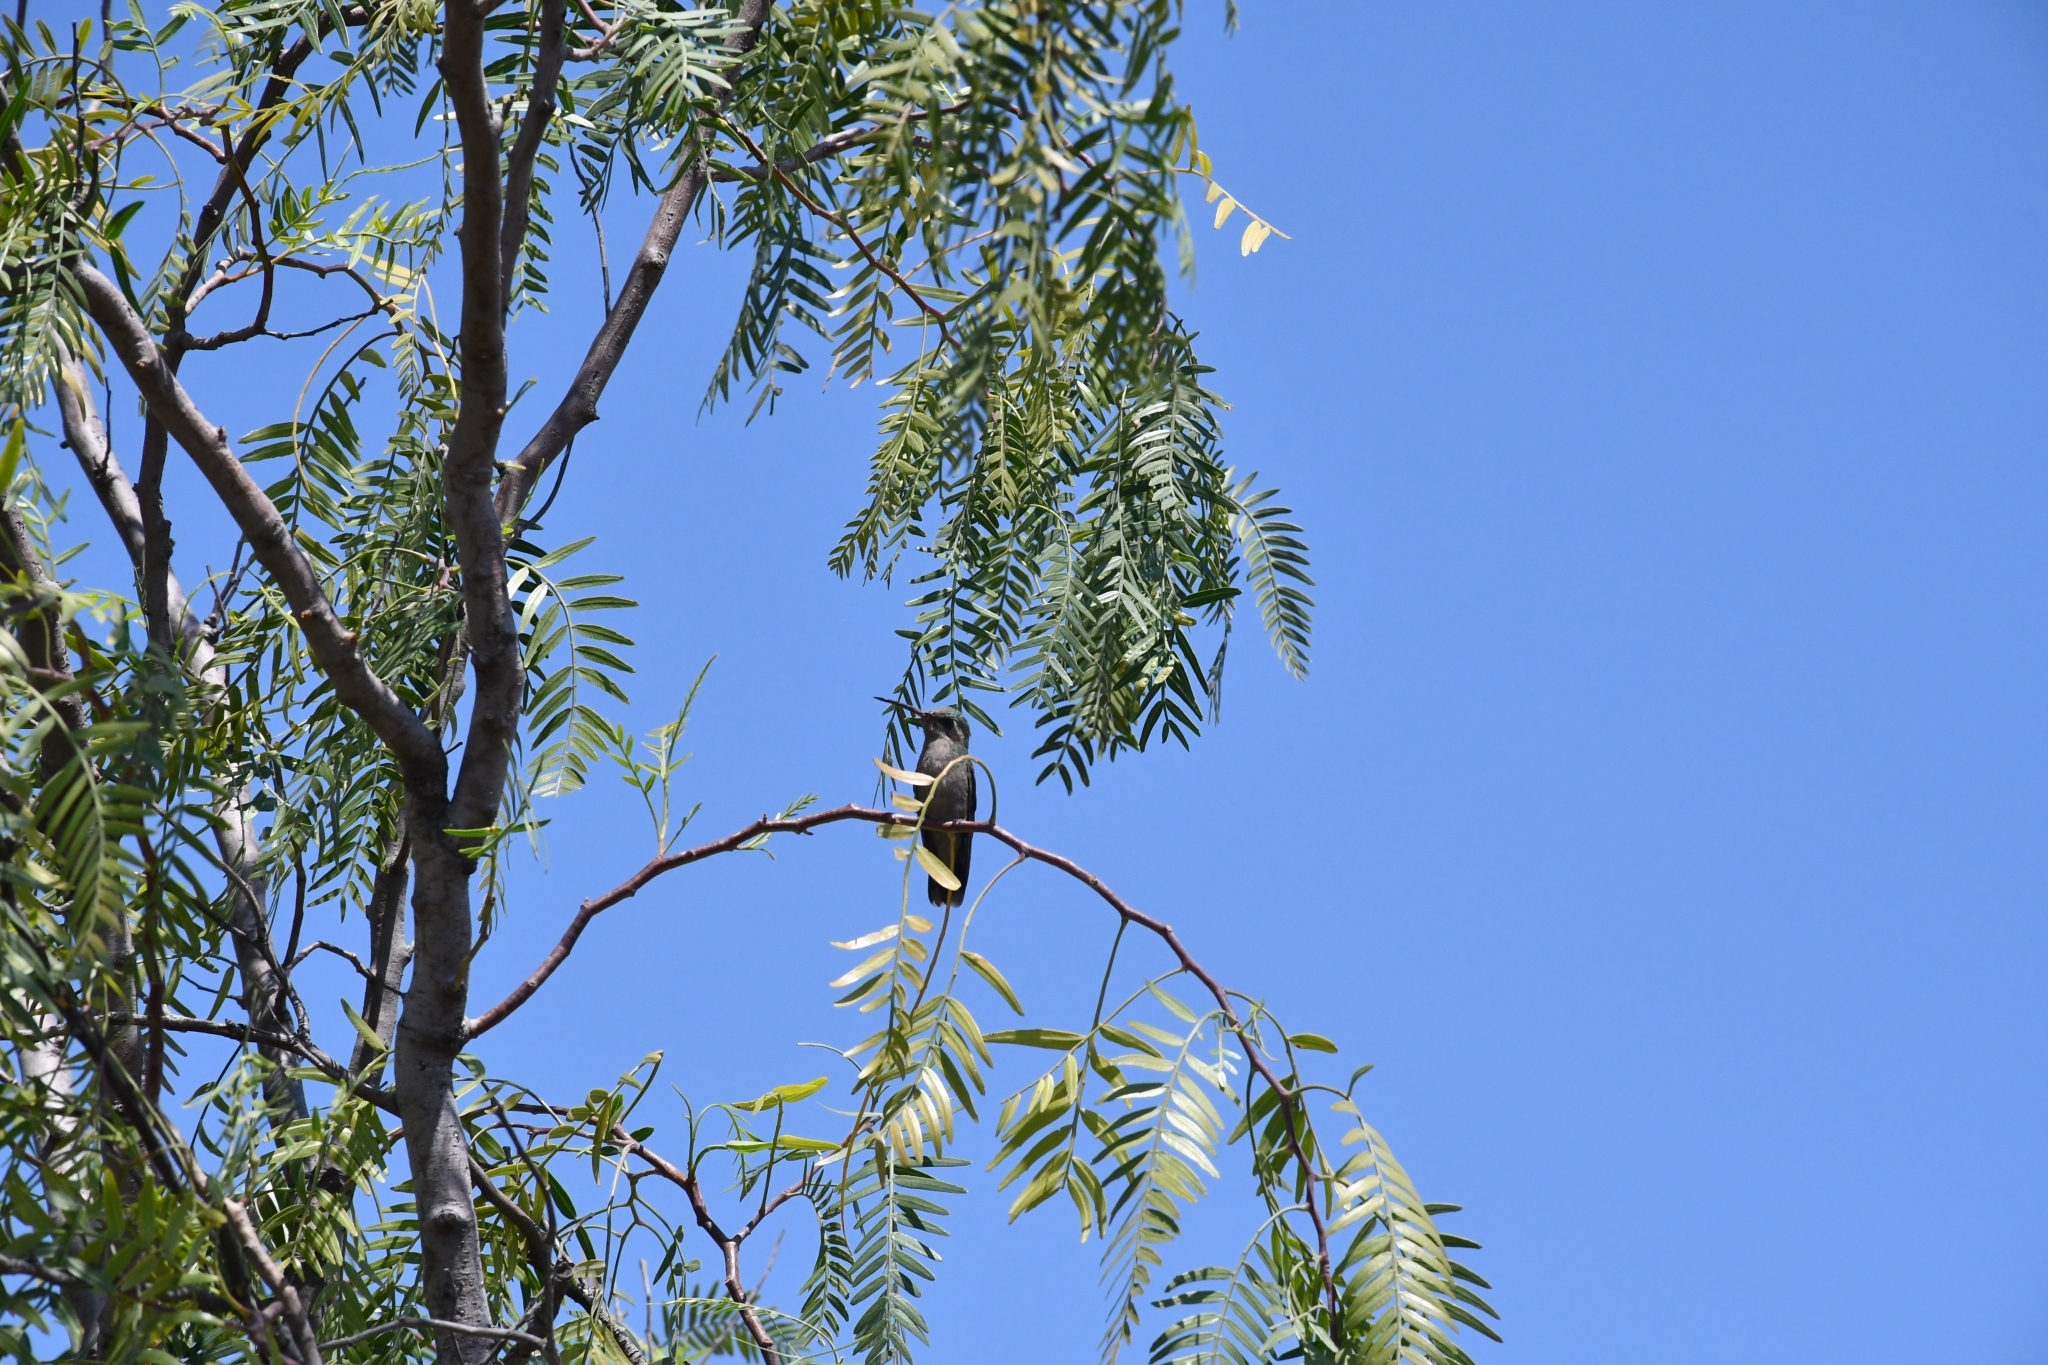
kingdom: Animalia
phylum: Chordata
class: Aves
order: Apodiformes
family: Trochilidae
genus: Cynanthus
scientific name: Cynanthus latirostris
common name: Broad-billed hummingbird
